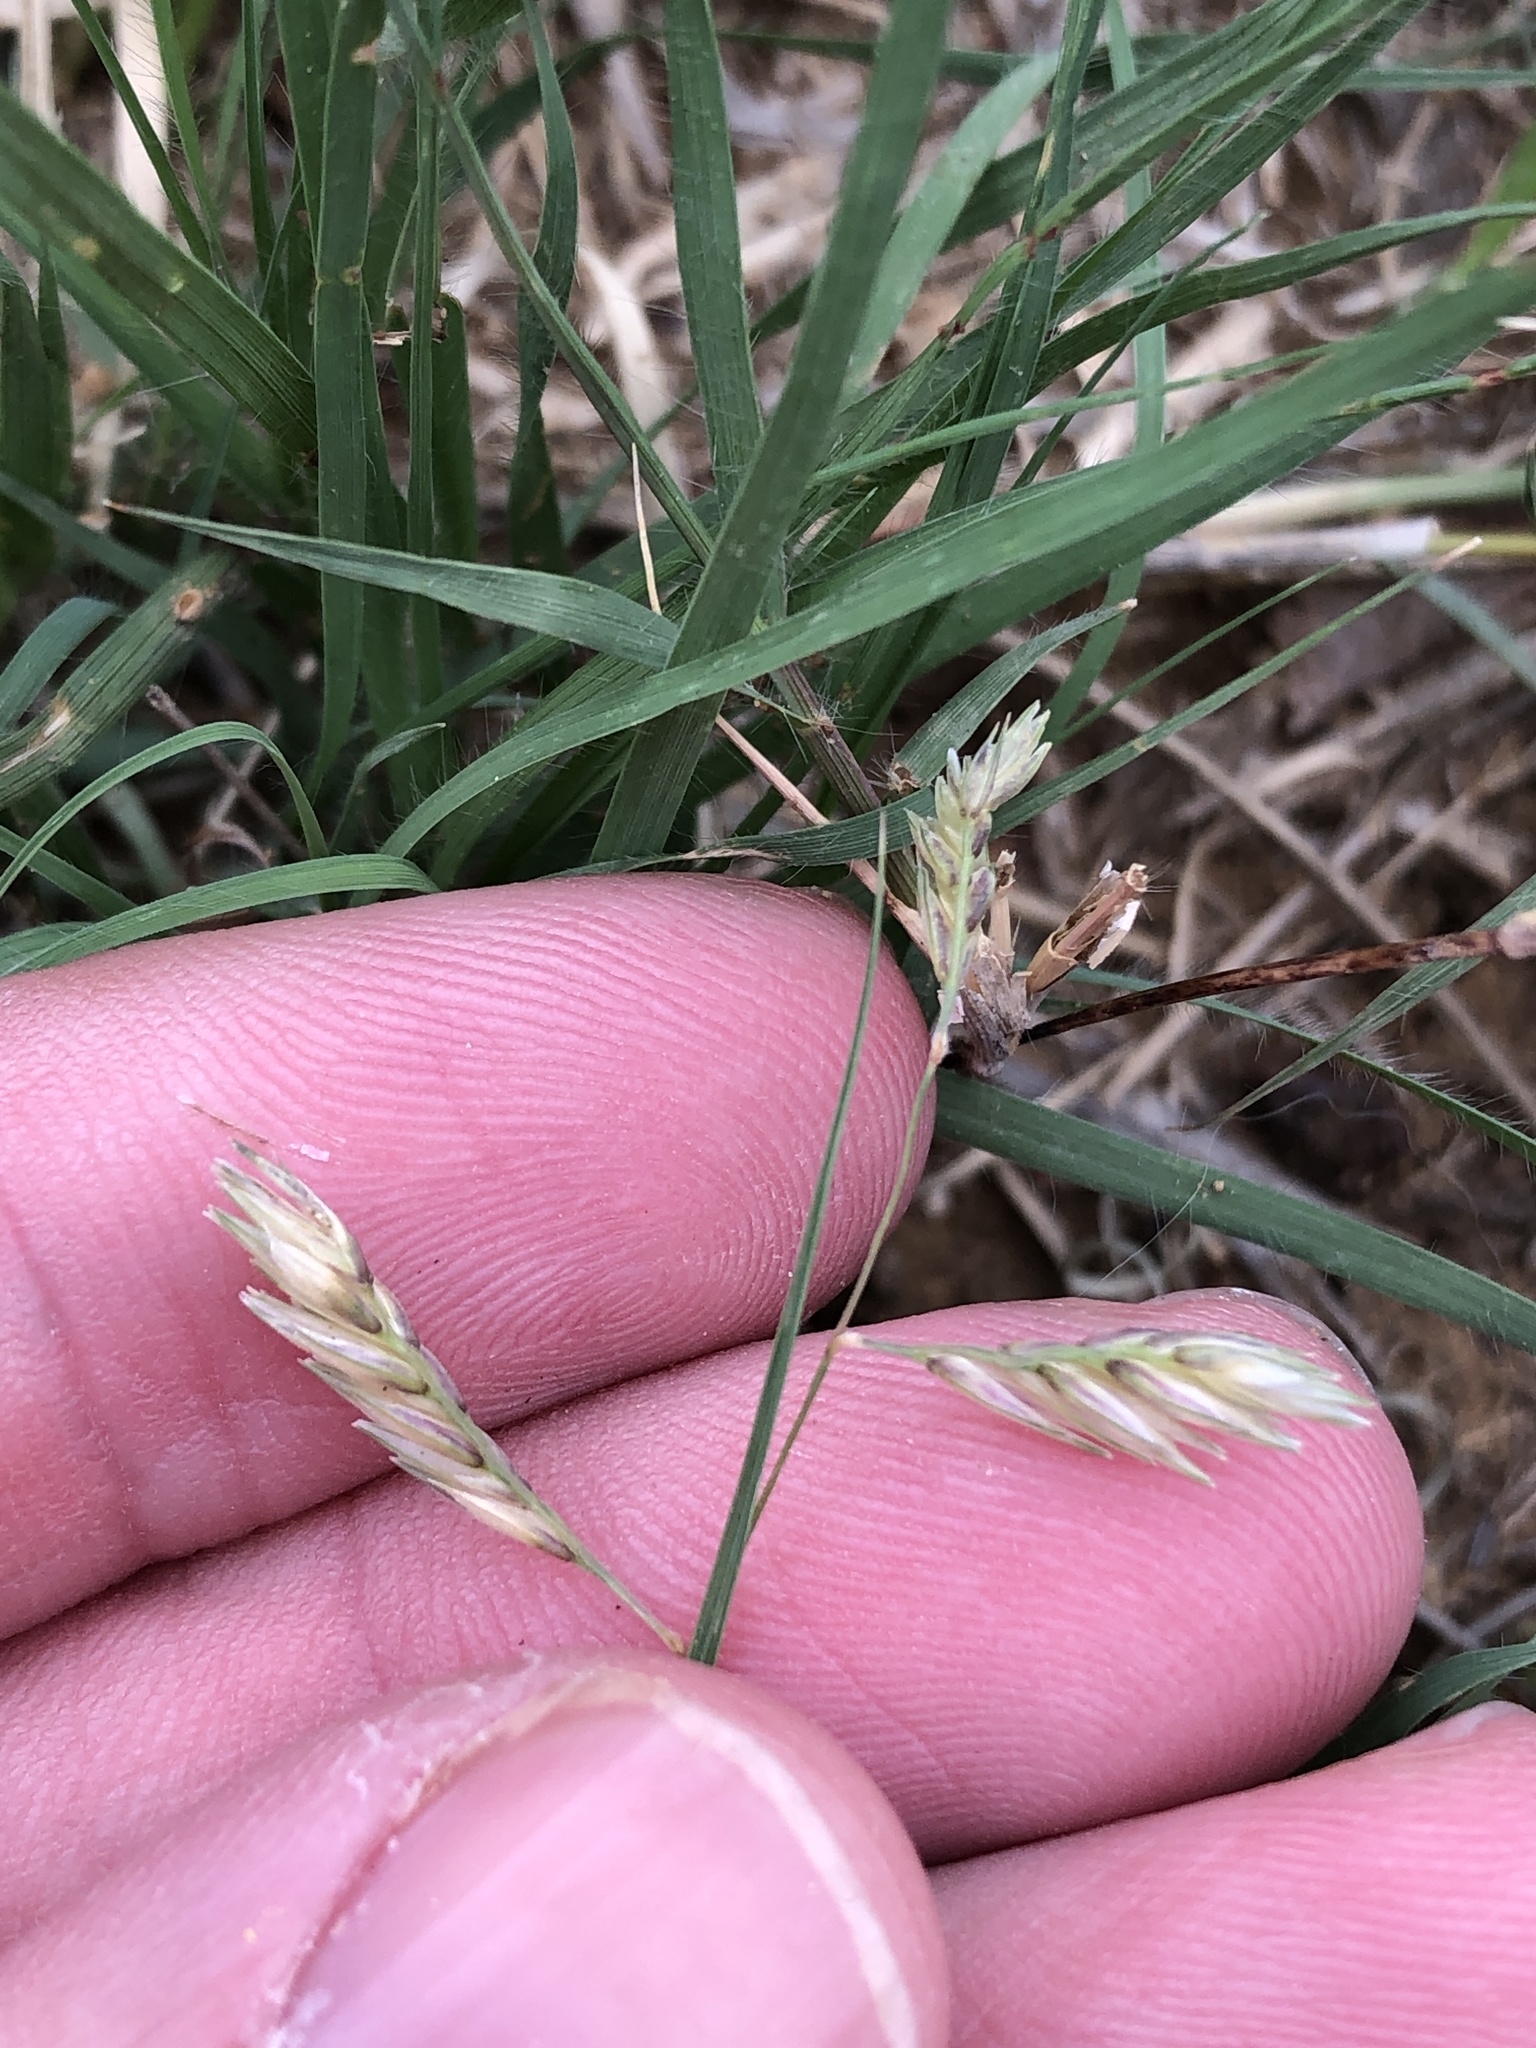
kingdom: Plantae
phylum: Tracheophyta
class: Liliopsida
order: Poales
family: Poaceae
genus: Bouteloua
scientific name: Bouteloua dactyloides
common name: Buffalo grass
